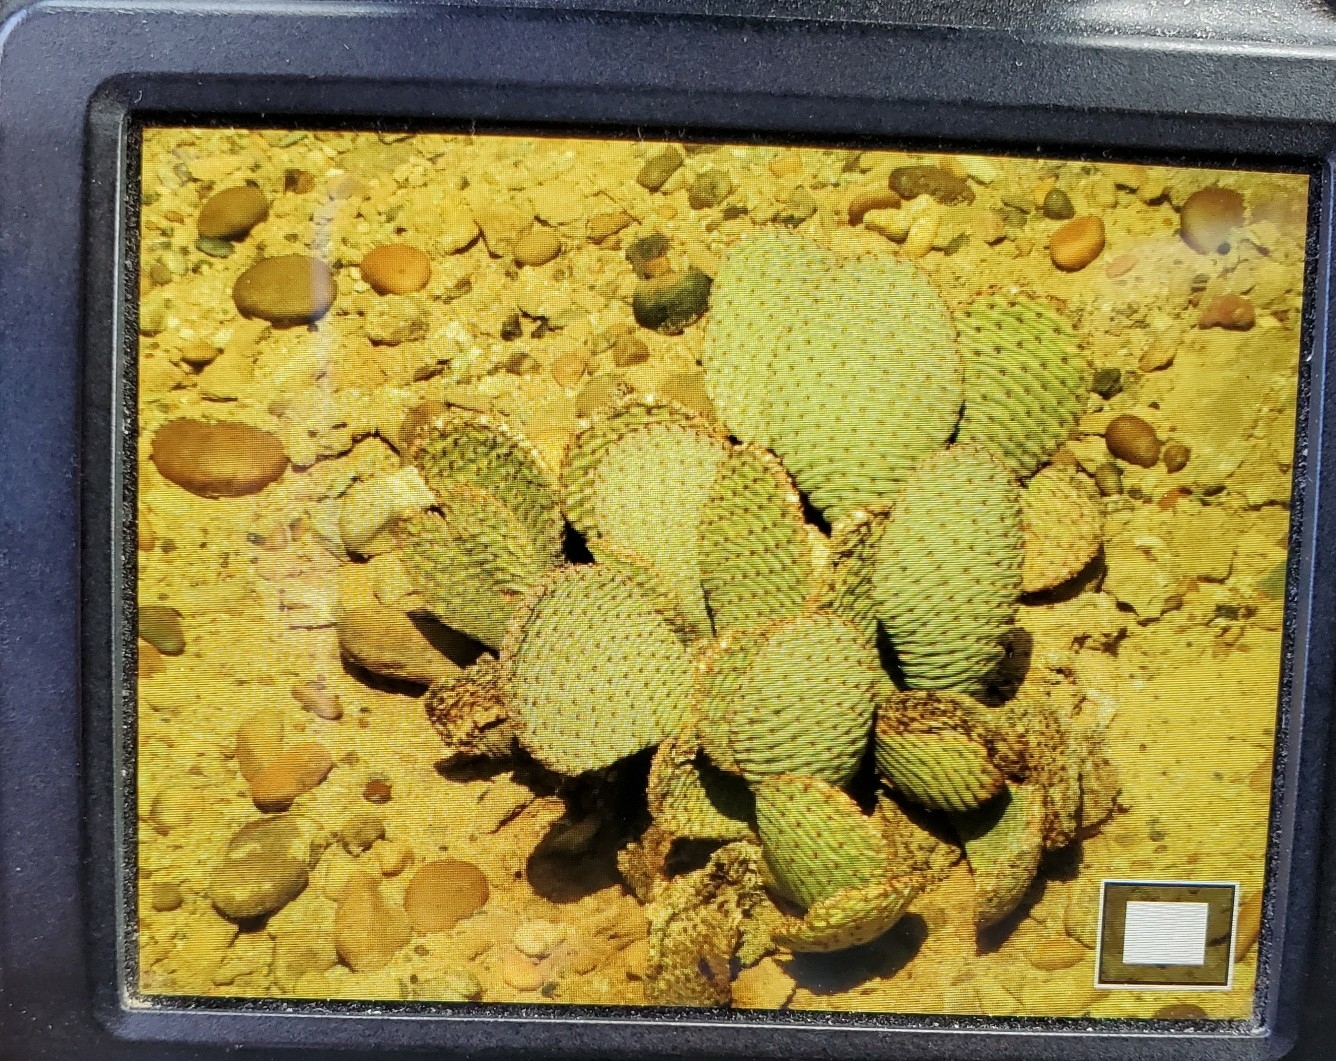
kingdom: Plantae
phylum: Tracheophyta
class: Magnoliopsida
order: Caryophyllales
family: Cactaceae
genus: Opuntia
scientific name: Opuntia basilaris
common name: Beavertail prickly-pear
